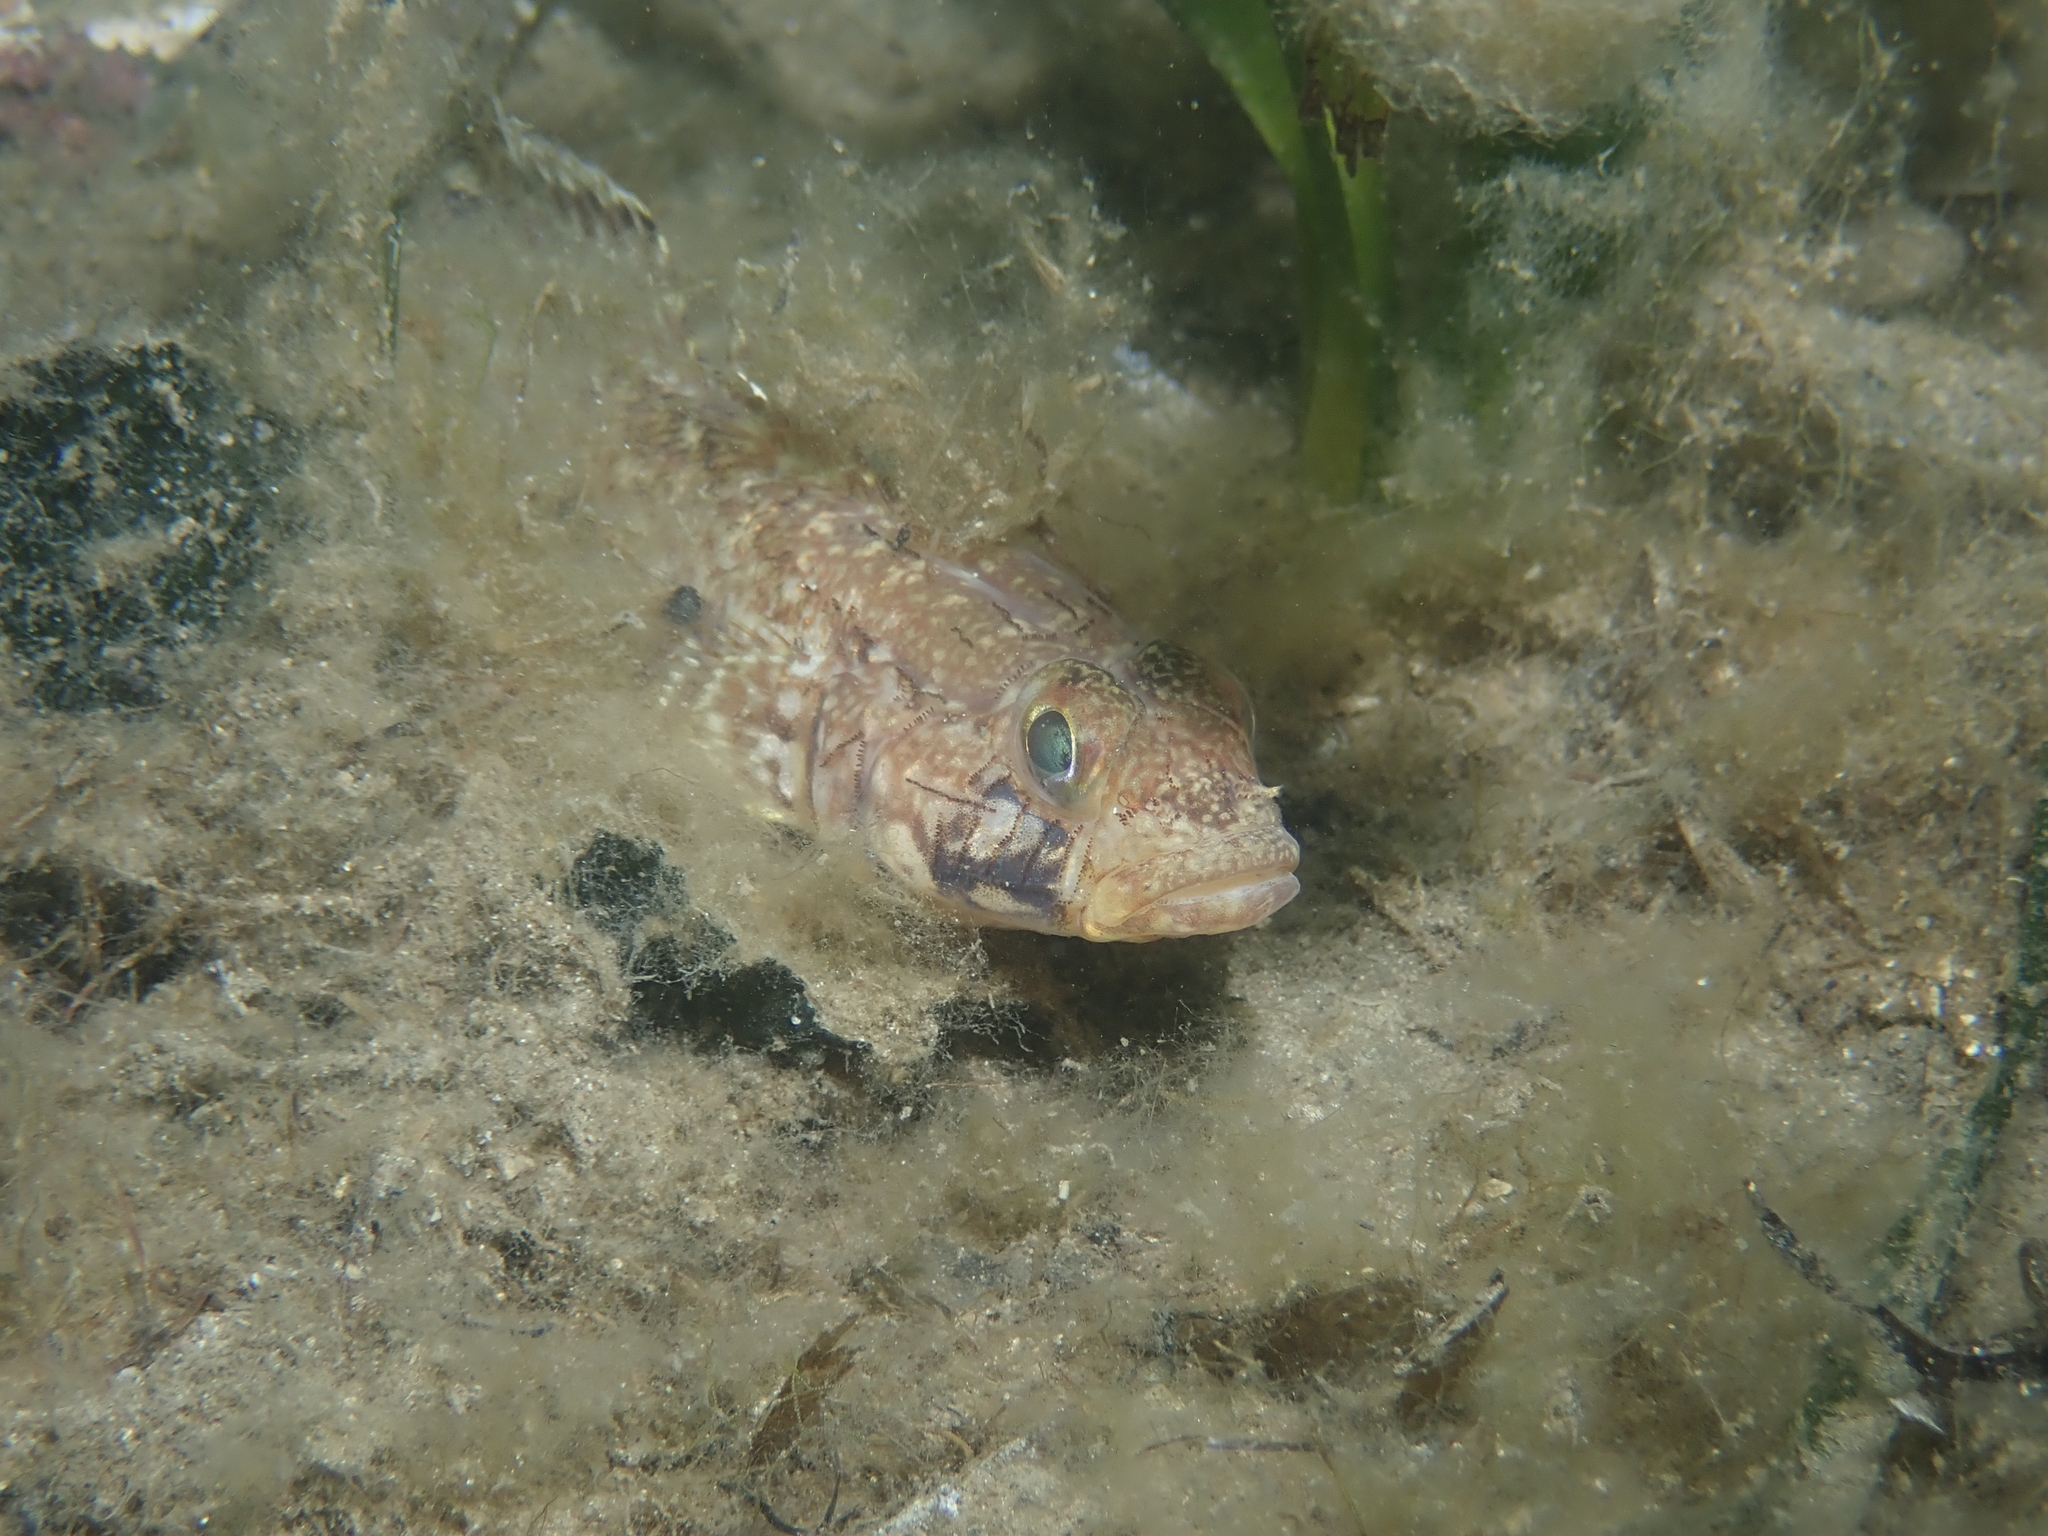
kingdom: Animalia
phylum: Chordata
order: Perciformes
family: Gobiidae
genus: Gobius
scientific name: Gobius geniporus
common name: Slender goby
